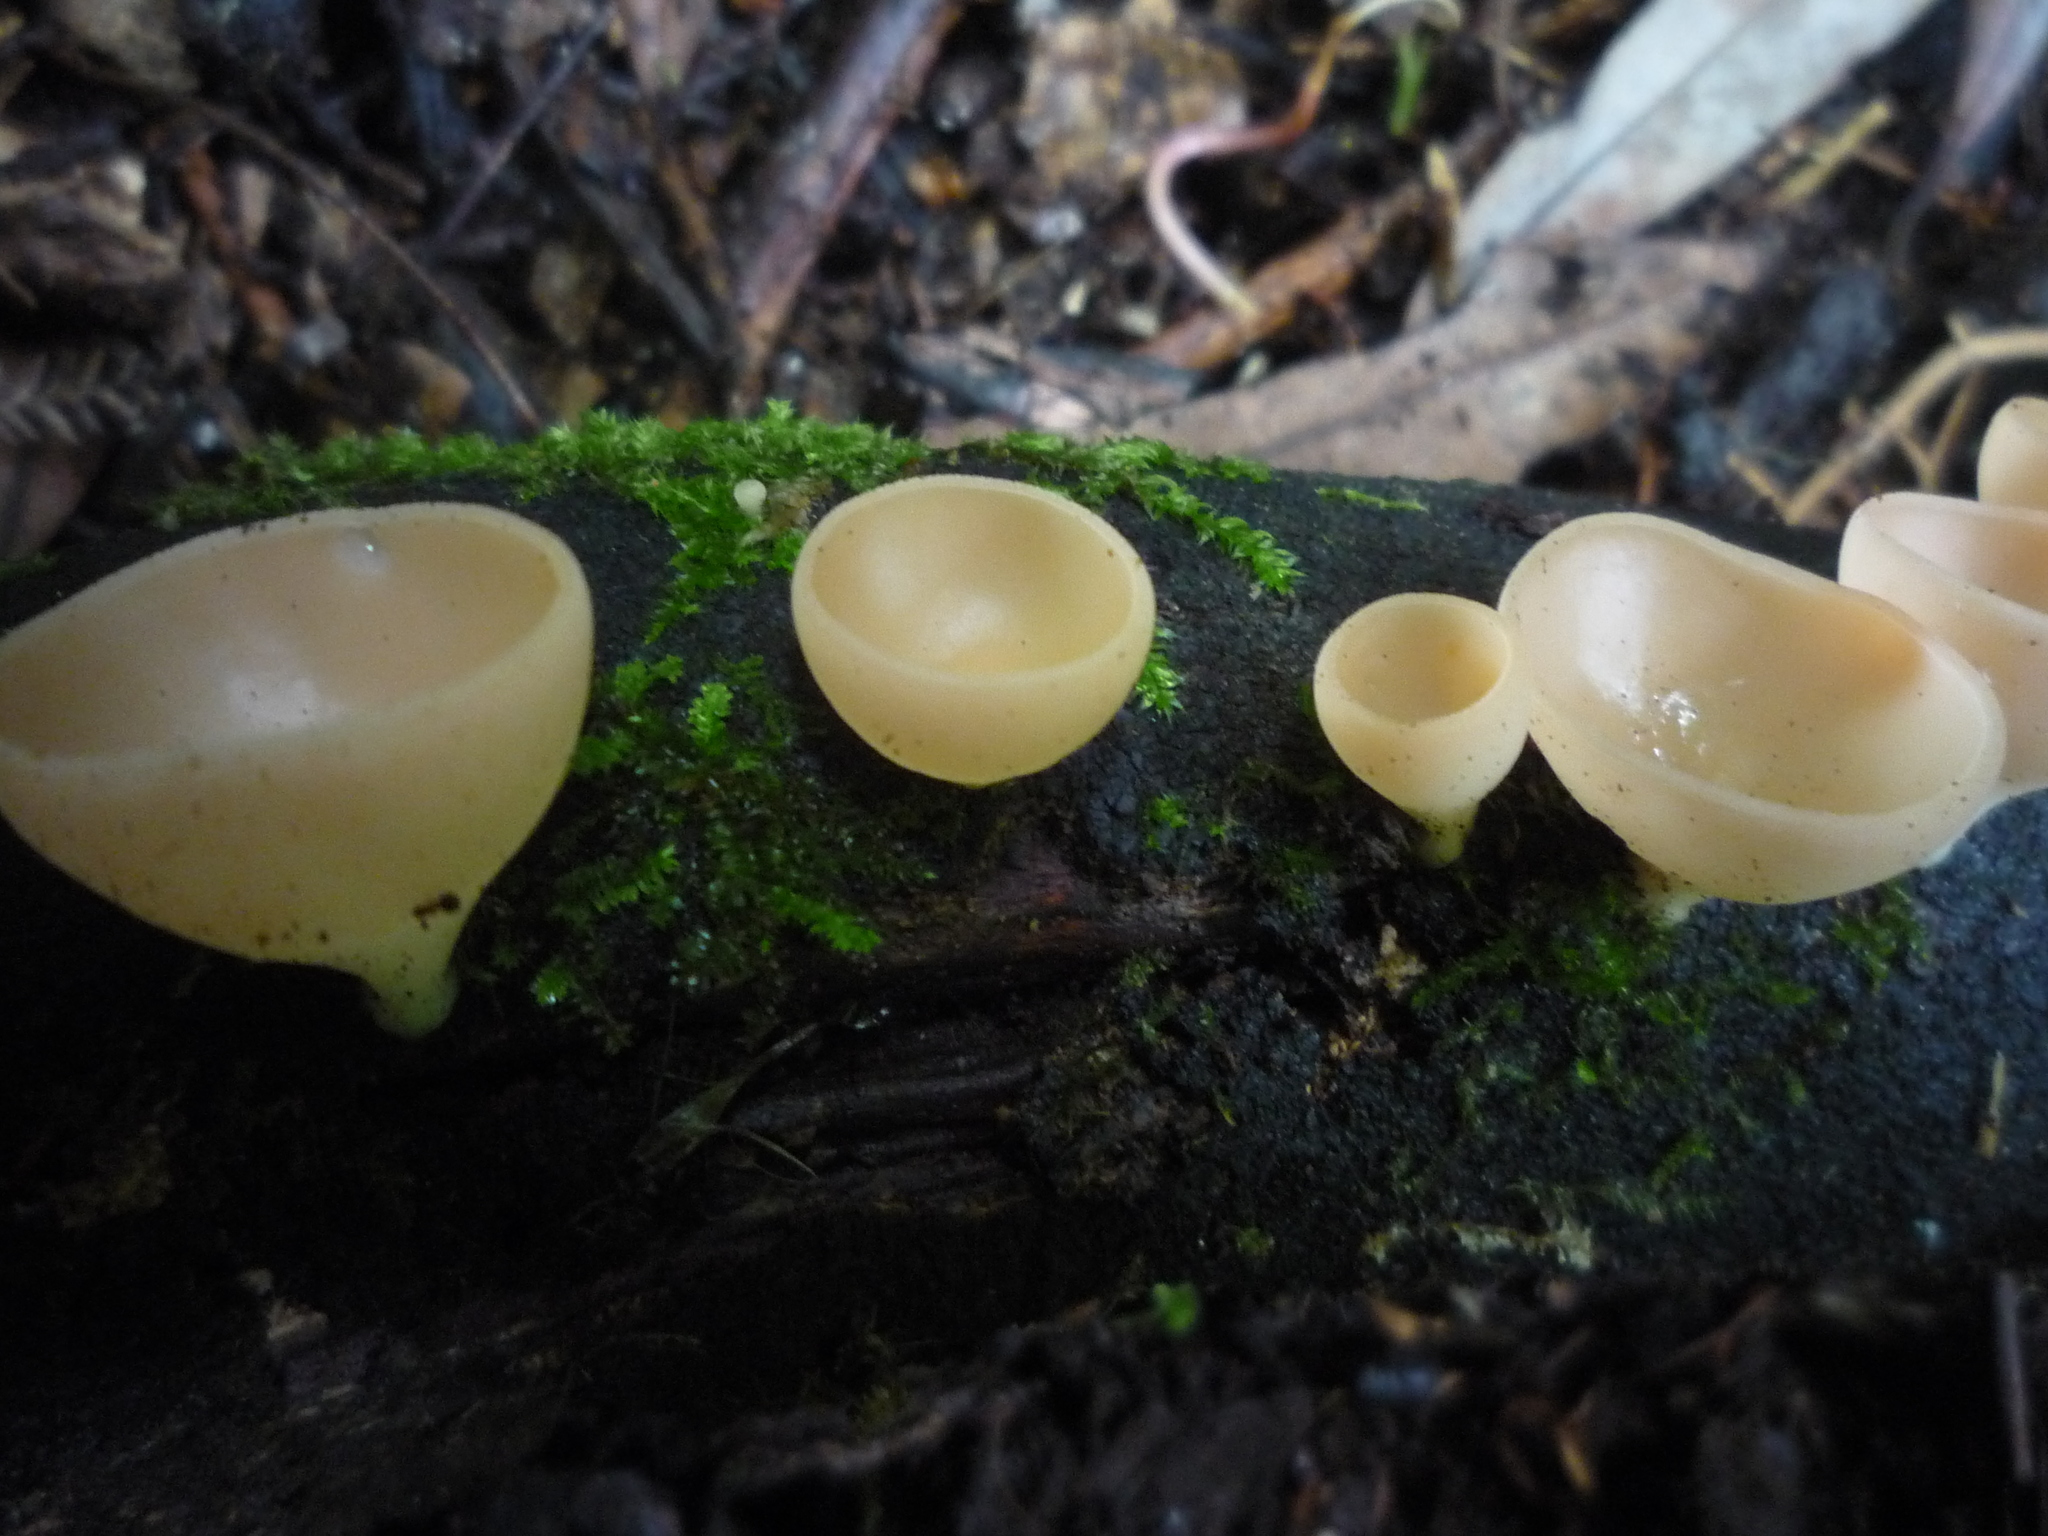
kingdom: Fungi
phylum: Ascomycota
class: Pezizomycetes
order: Pezizales
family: Sarcoscyphaceae
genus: Cookeina
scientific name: Cookeina colensoi
